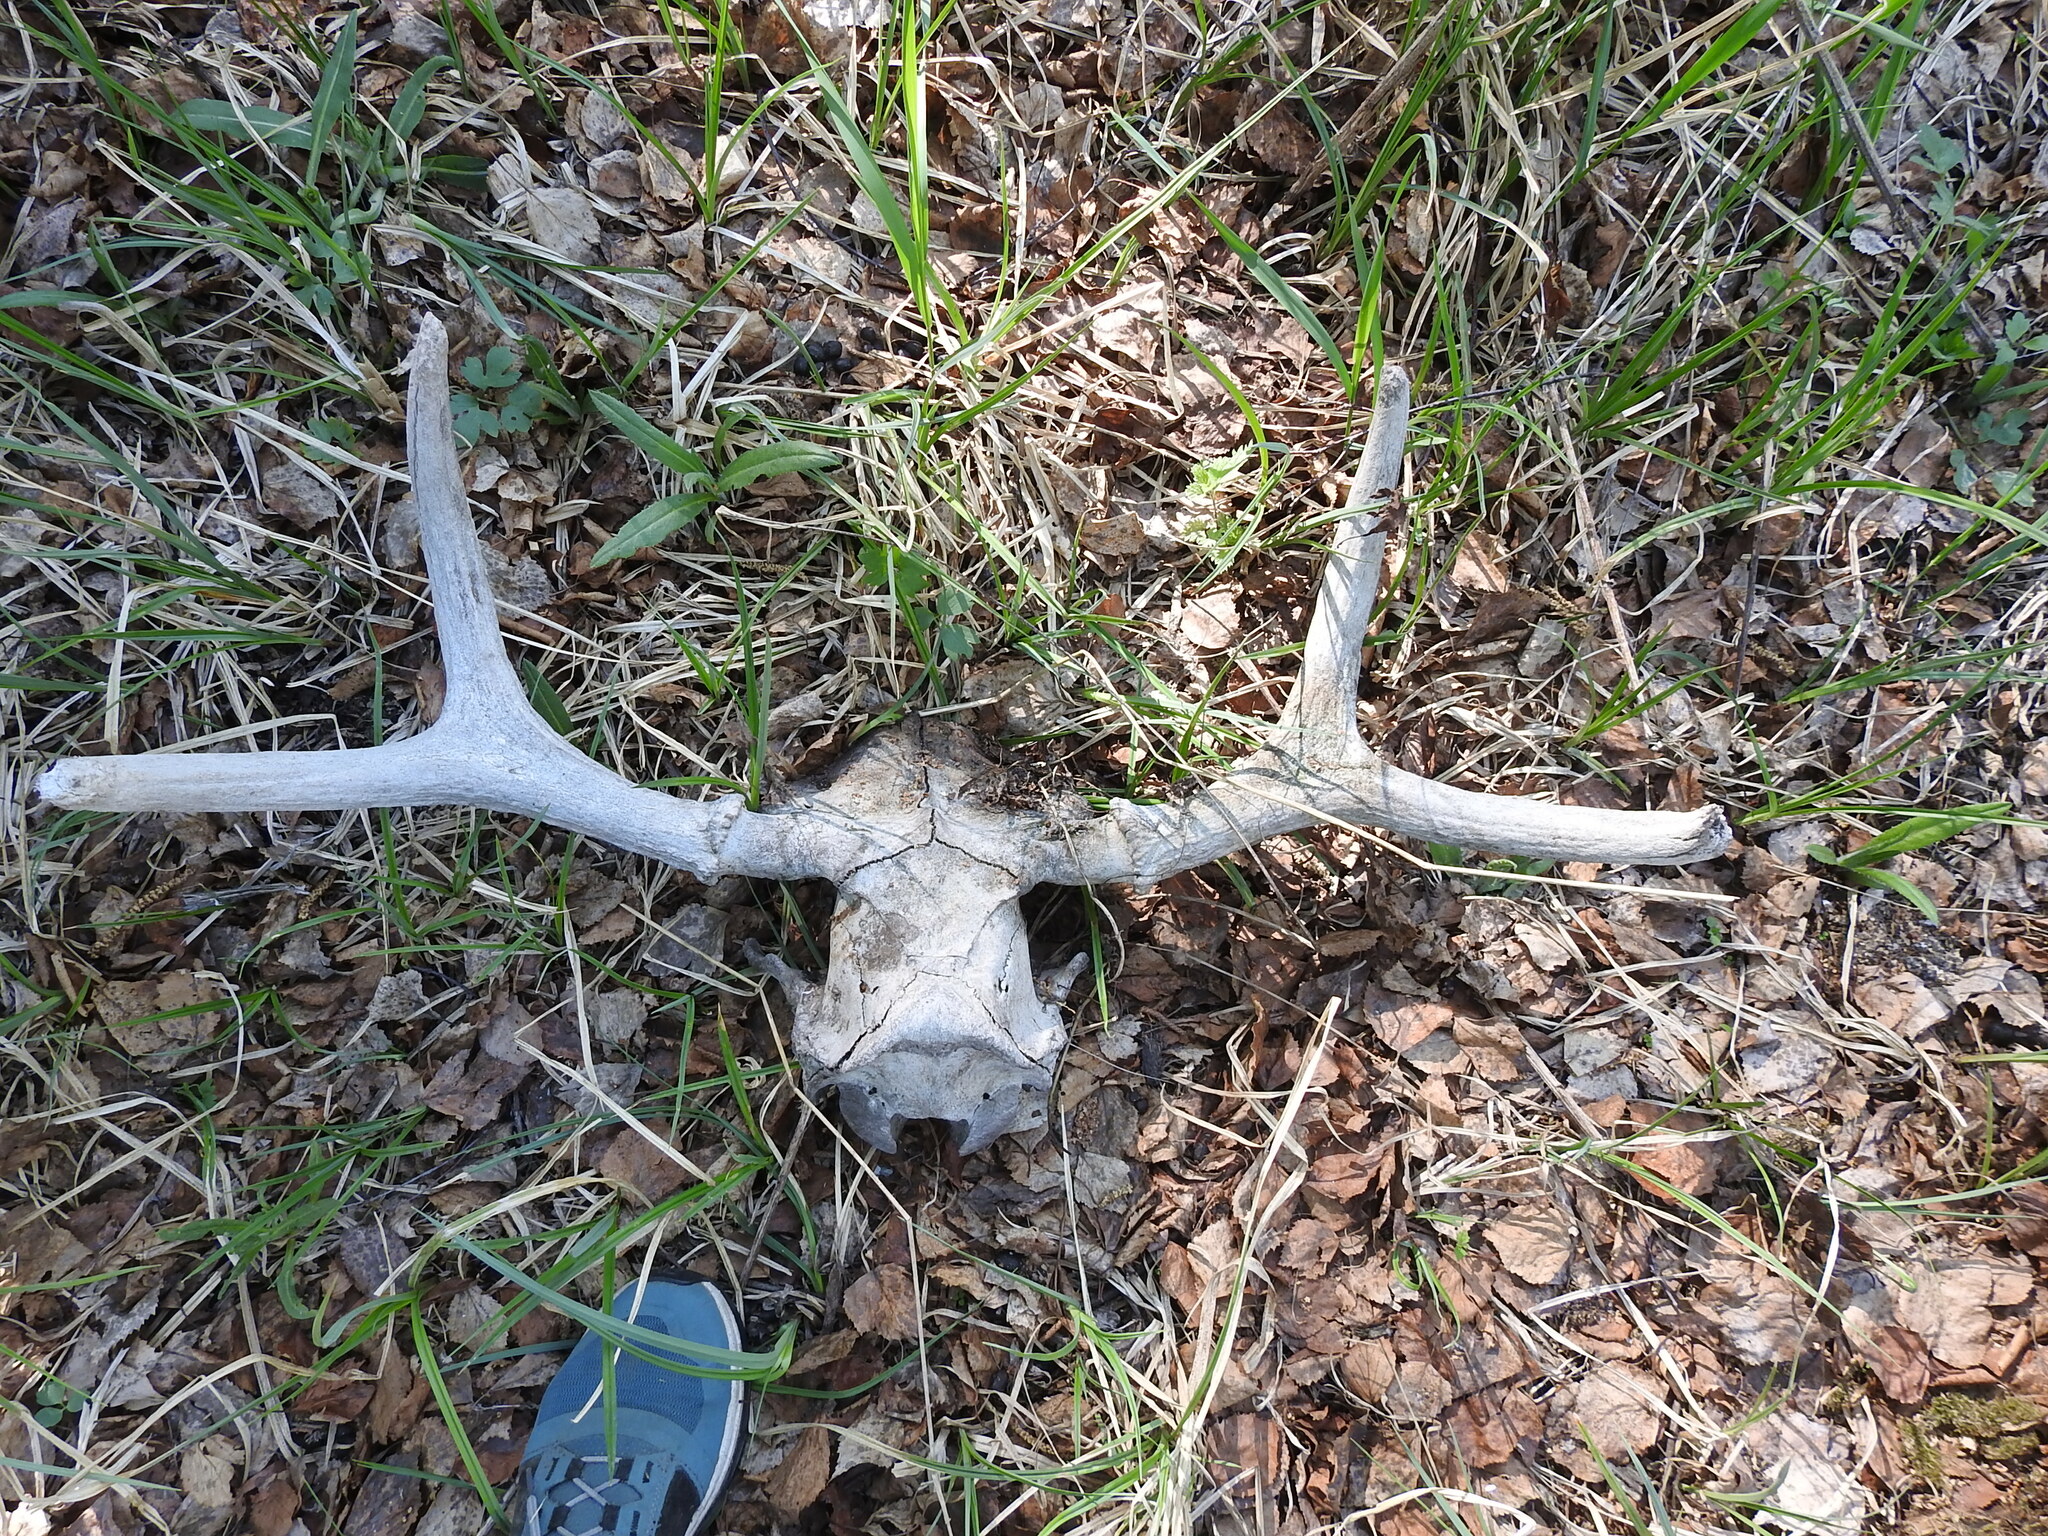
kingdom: Animalia
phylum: Chordata
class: Mammalia
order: Artiodactyla
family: Cervidae
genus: Capreolus
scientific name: Capreolus pygargus
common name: Siberian roe
